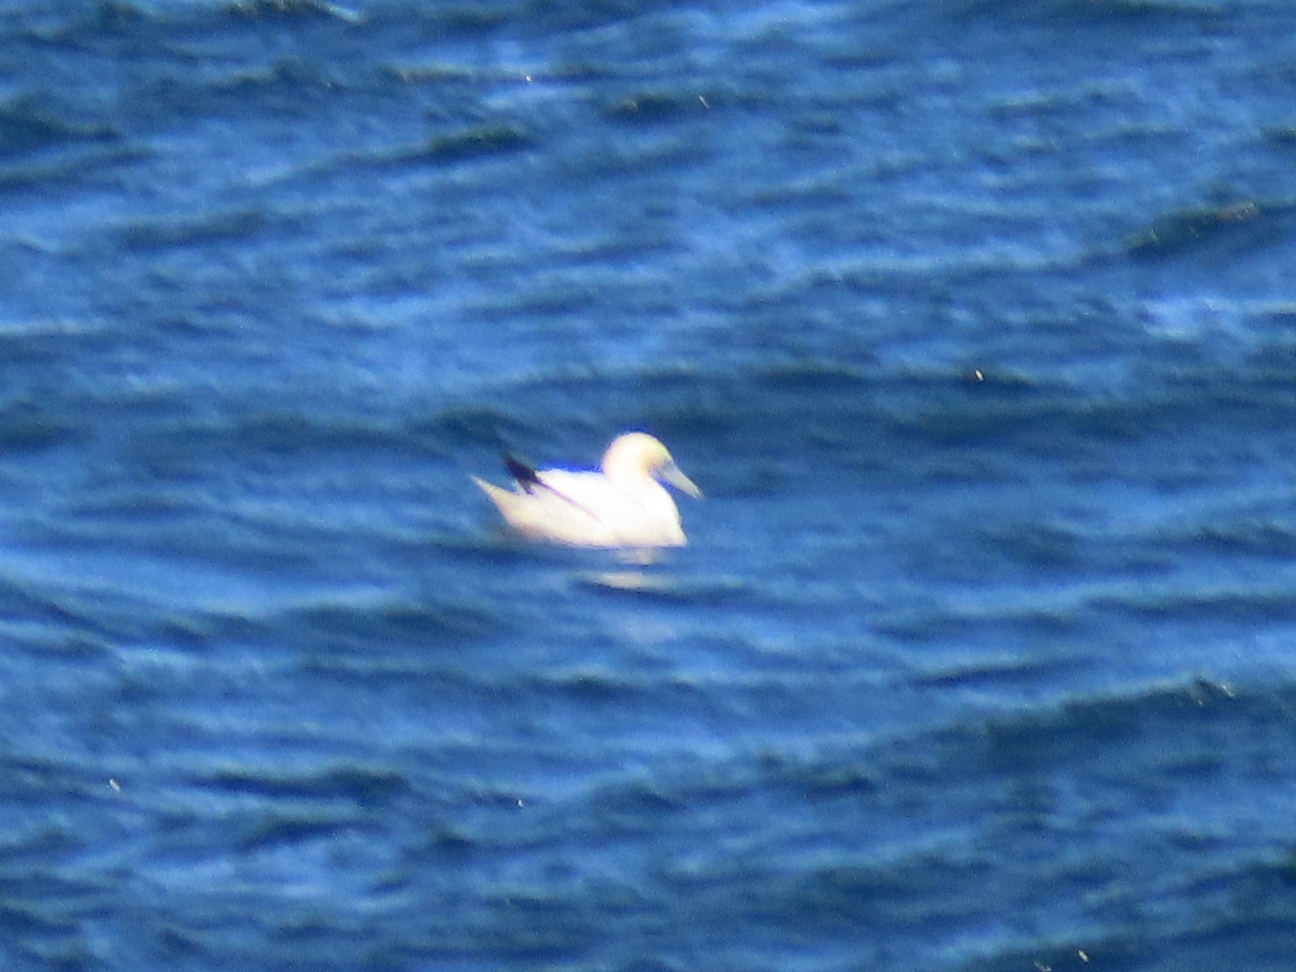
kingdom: Animalia
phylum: Chordata
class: Aves
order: Suliformes
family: Sulidae
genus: Morus
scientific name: Morus bassanus
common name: Northern gannet
